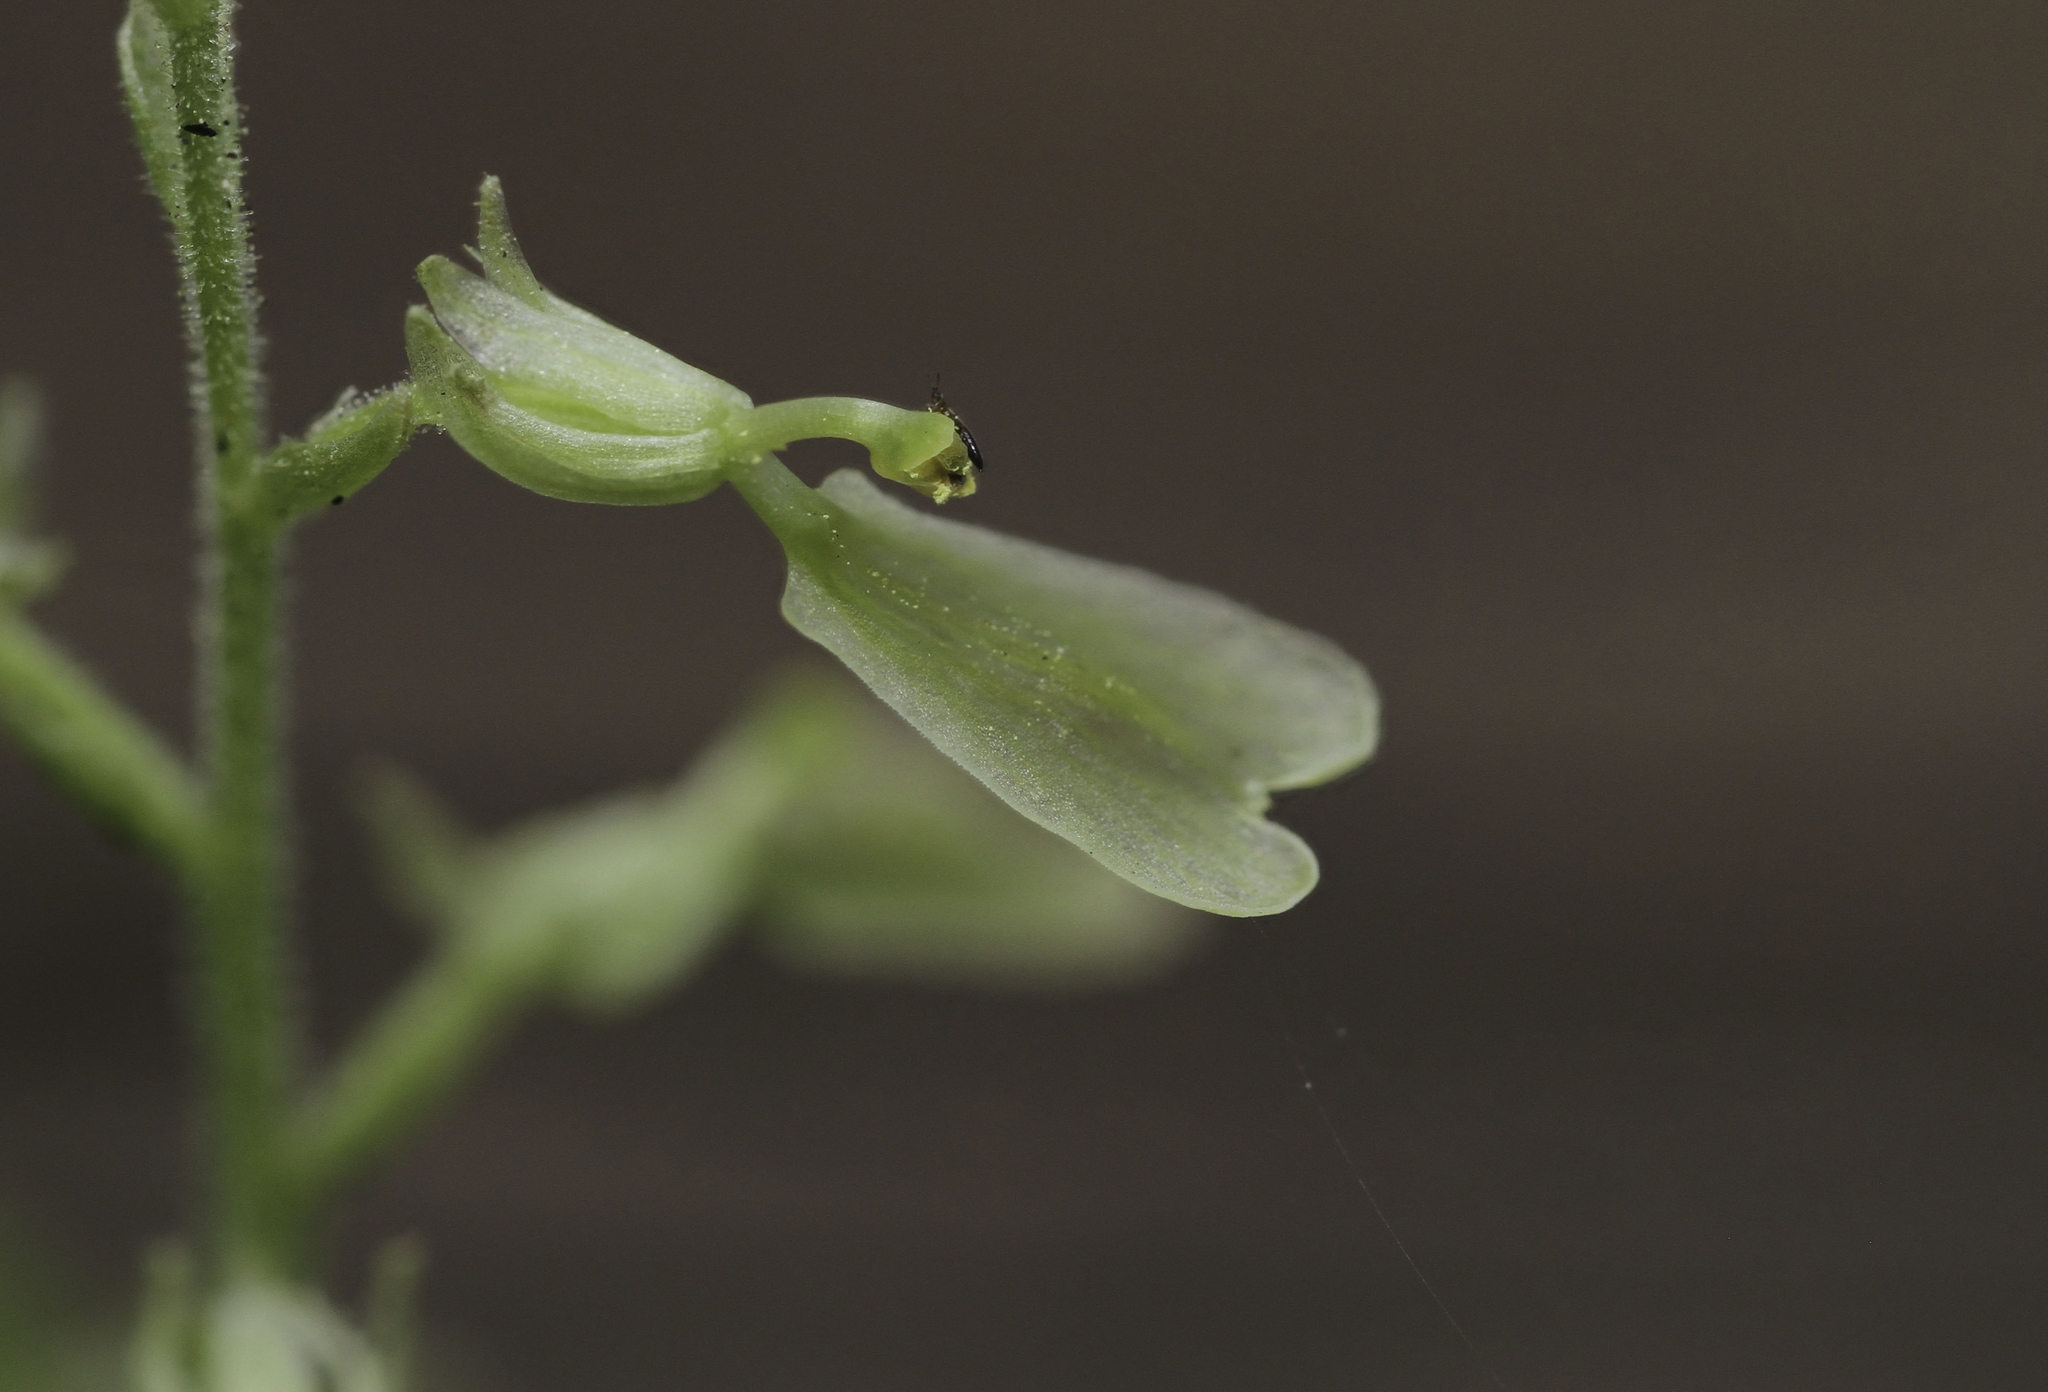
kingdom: Plantae
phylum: Tracheophyta
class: Liliopsida
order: Asparagales
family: Orchidaceae
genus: Neottia
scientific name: Neottia convallarioides
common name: Broadleaf twayblade
